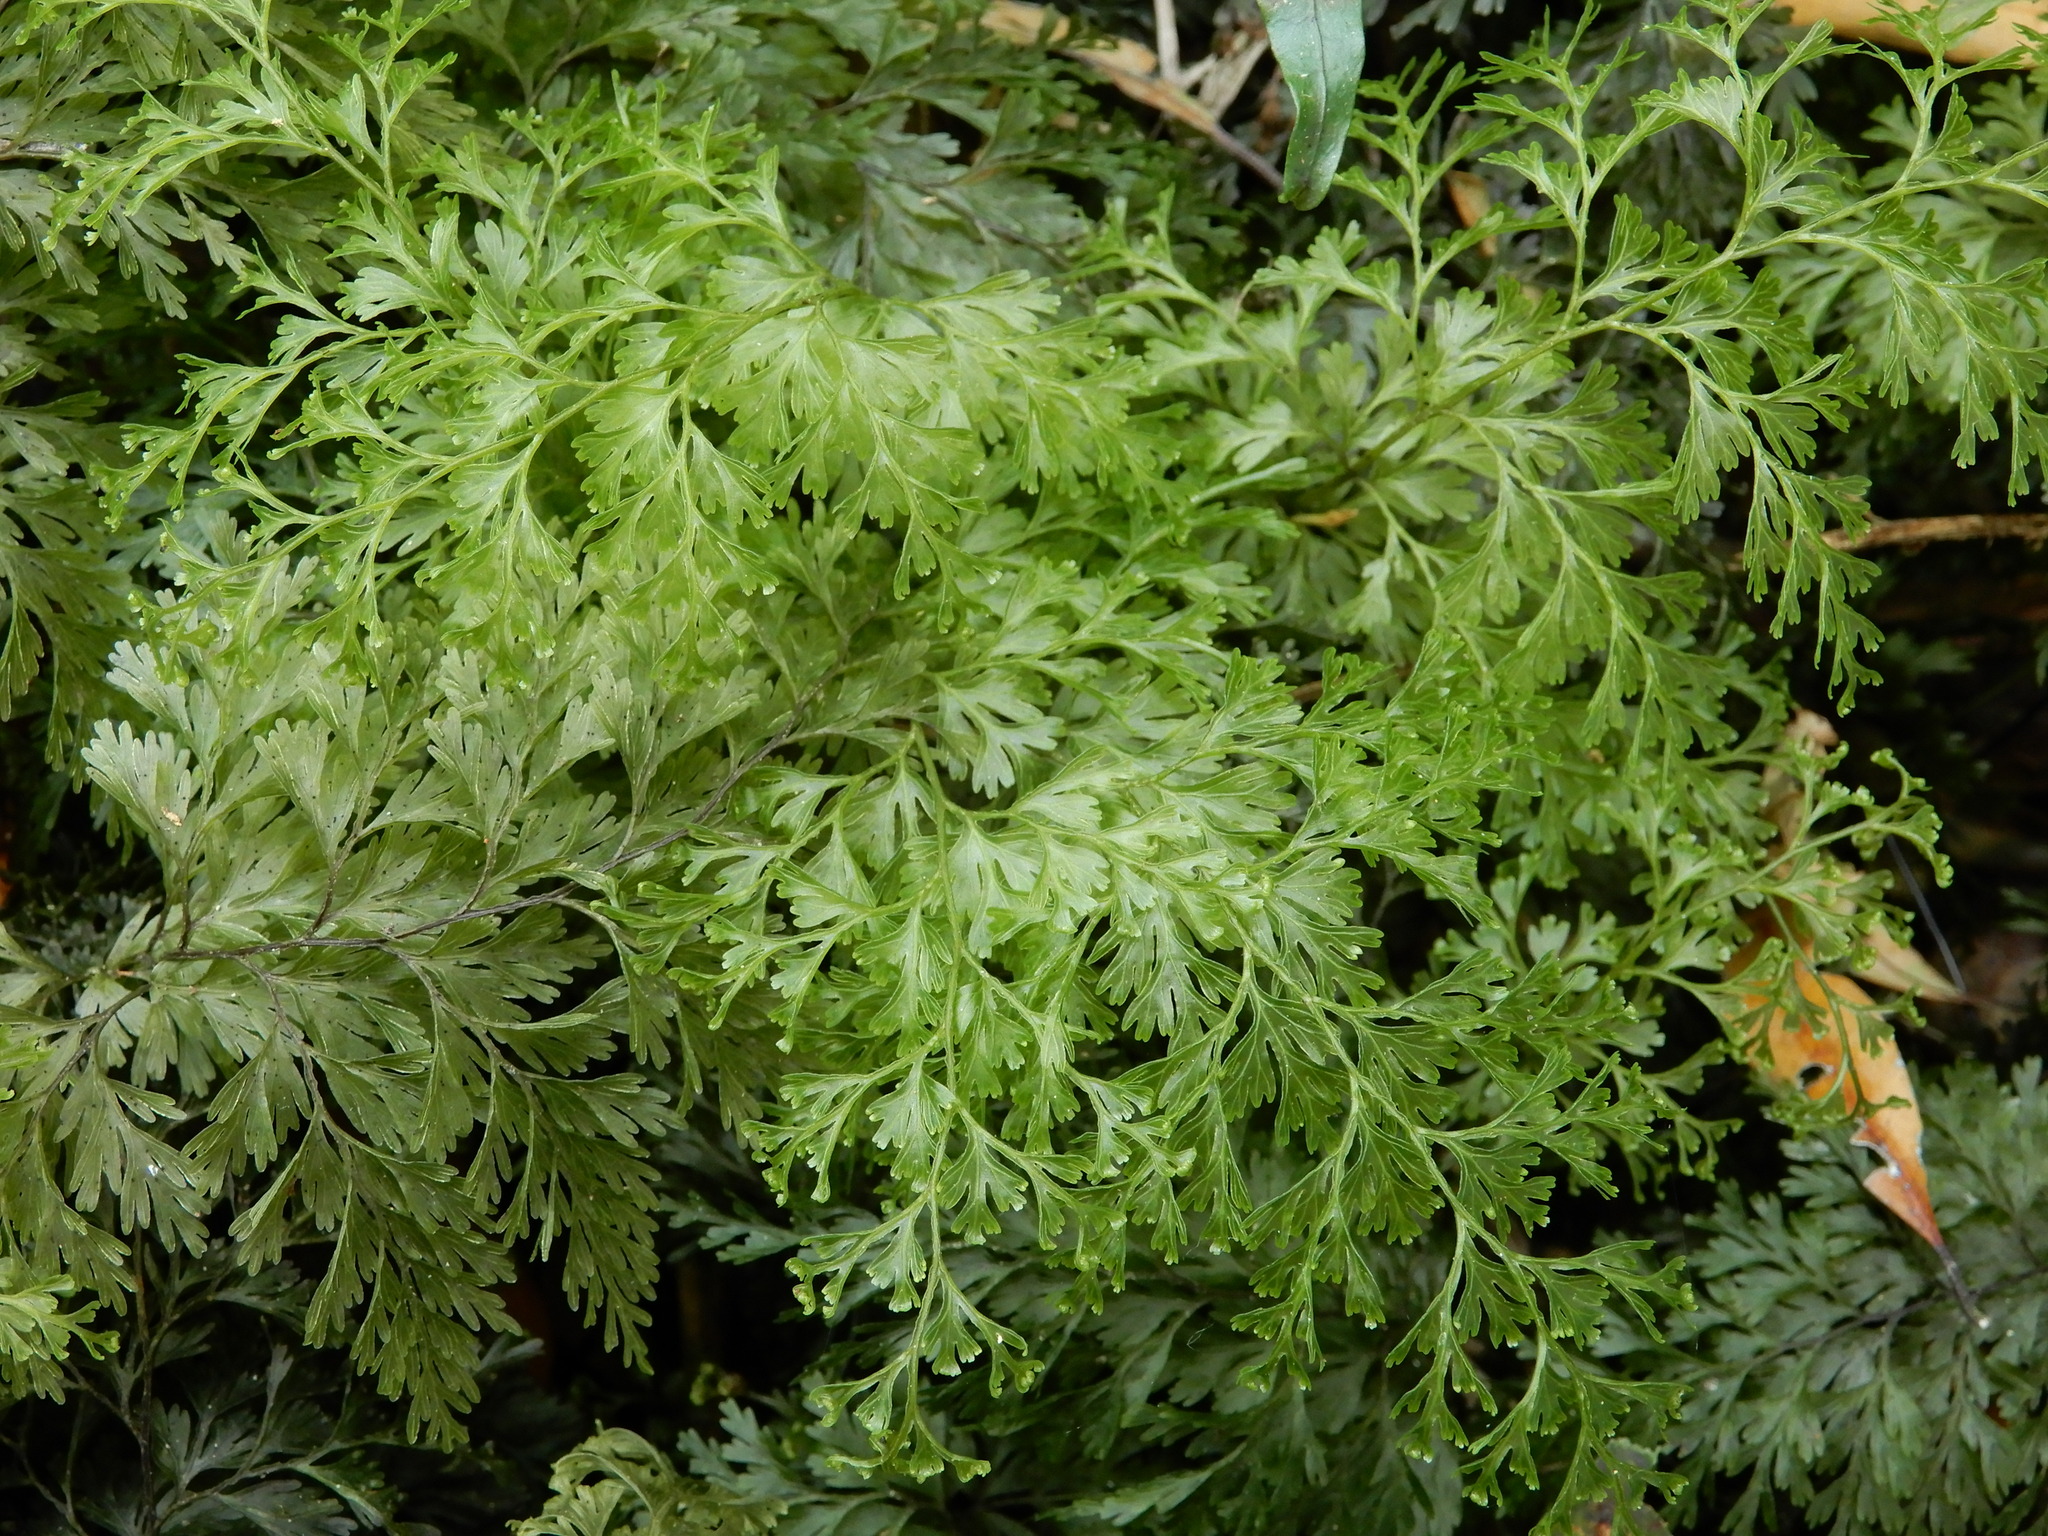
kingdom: Plantae
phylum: Tracheophyta
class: Polypodiopsida
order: Hymenophyllales
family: Hymenophyllaceae
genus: Hymenophyllum
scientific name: Hymenophyllum demissum
